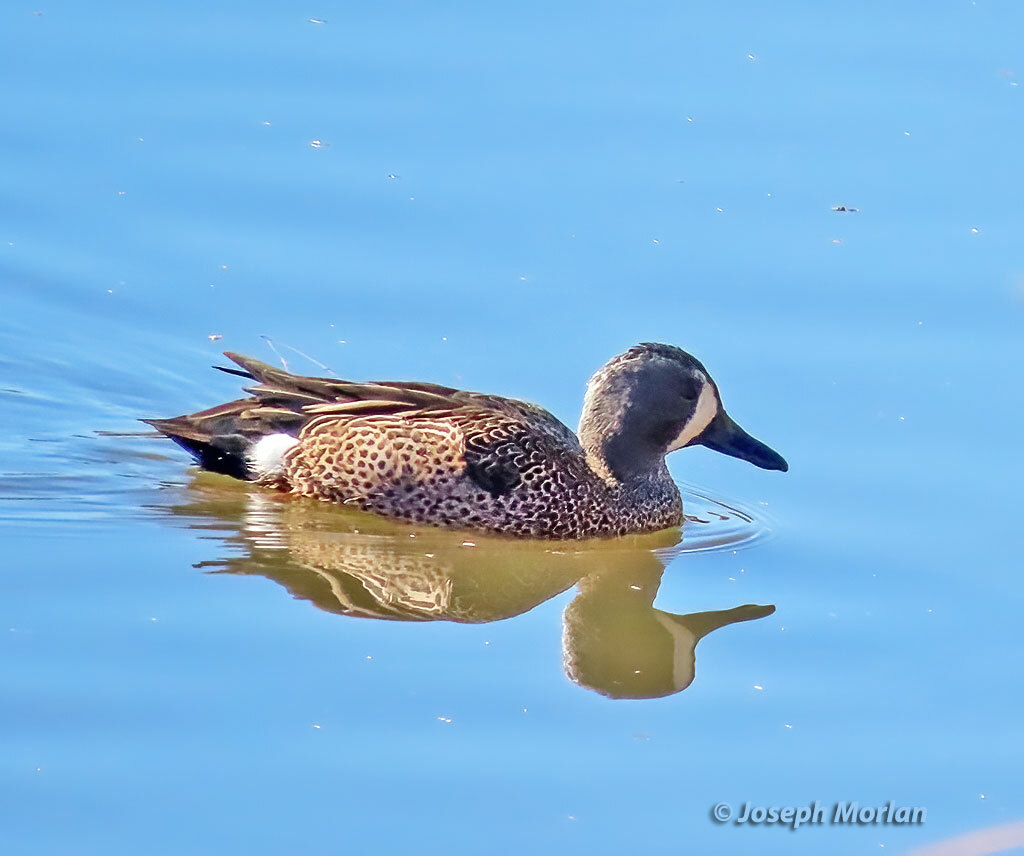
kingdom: Animalia
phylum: Chordata
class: Aves
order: Anseriformes
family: Anatidae
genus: Spatula
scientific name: Spatula discors
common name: Blue-winged teal
